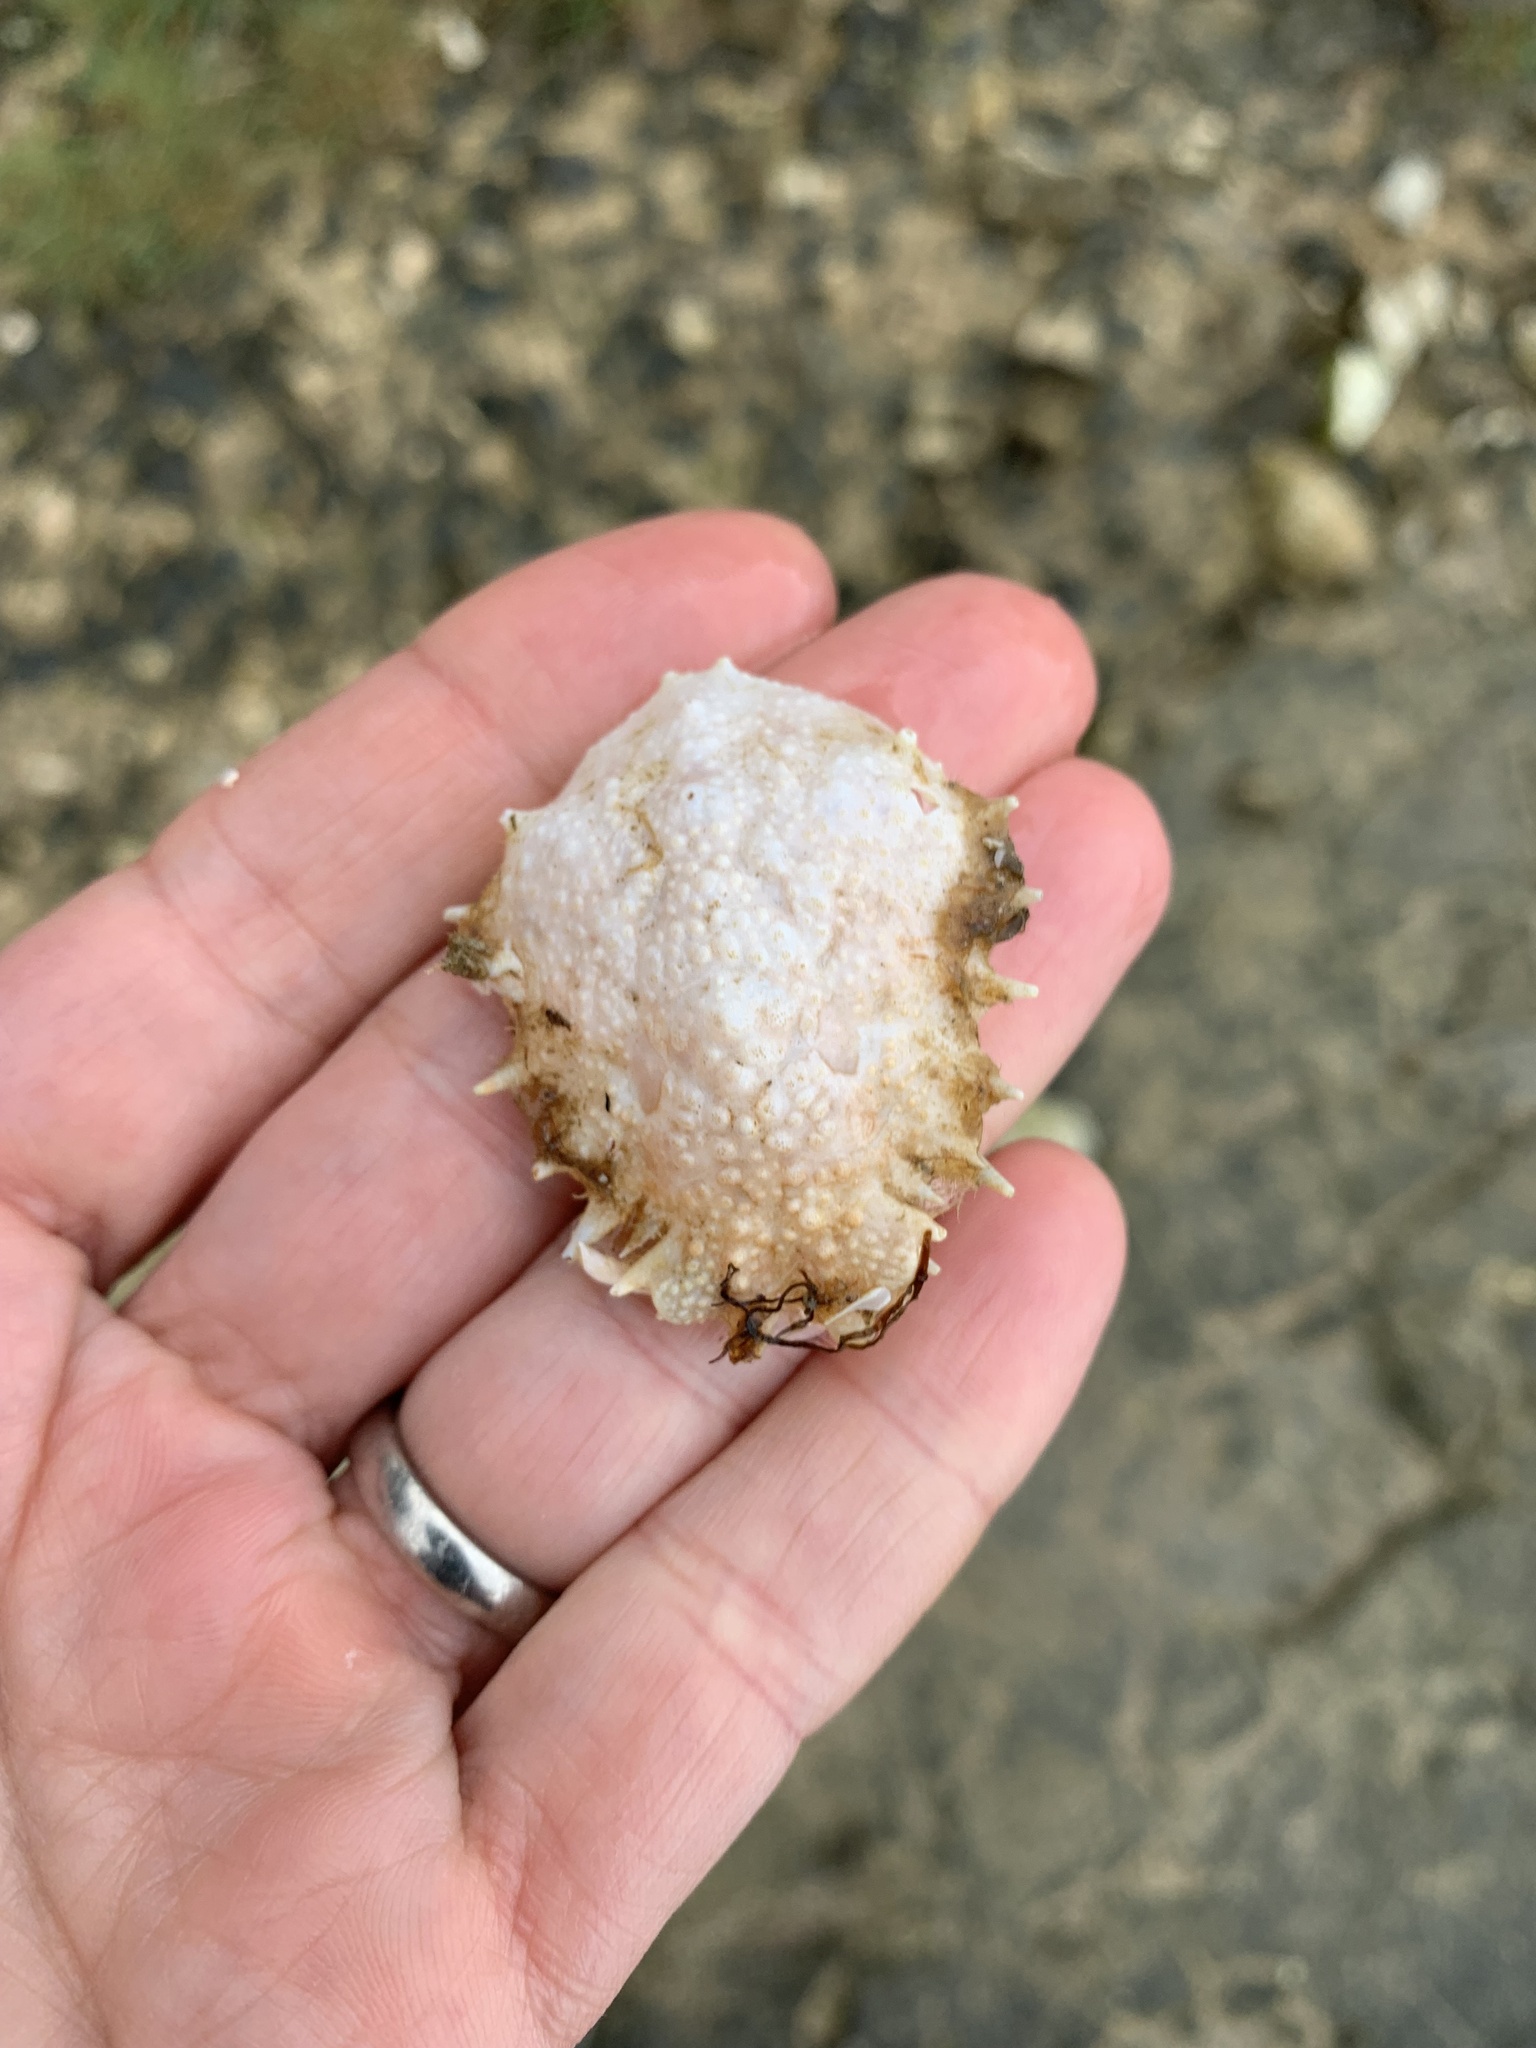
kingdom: Animalia
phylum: Arthropoda
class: Malacostraca
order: Decapoda
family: Majidae
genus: Maja
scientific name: Maja crispata
